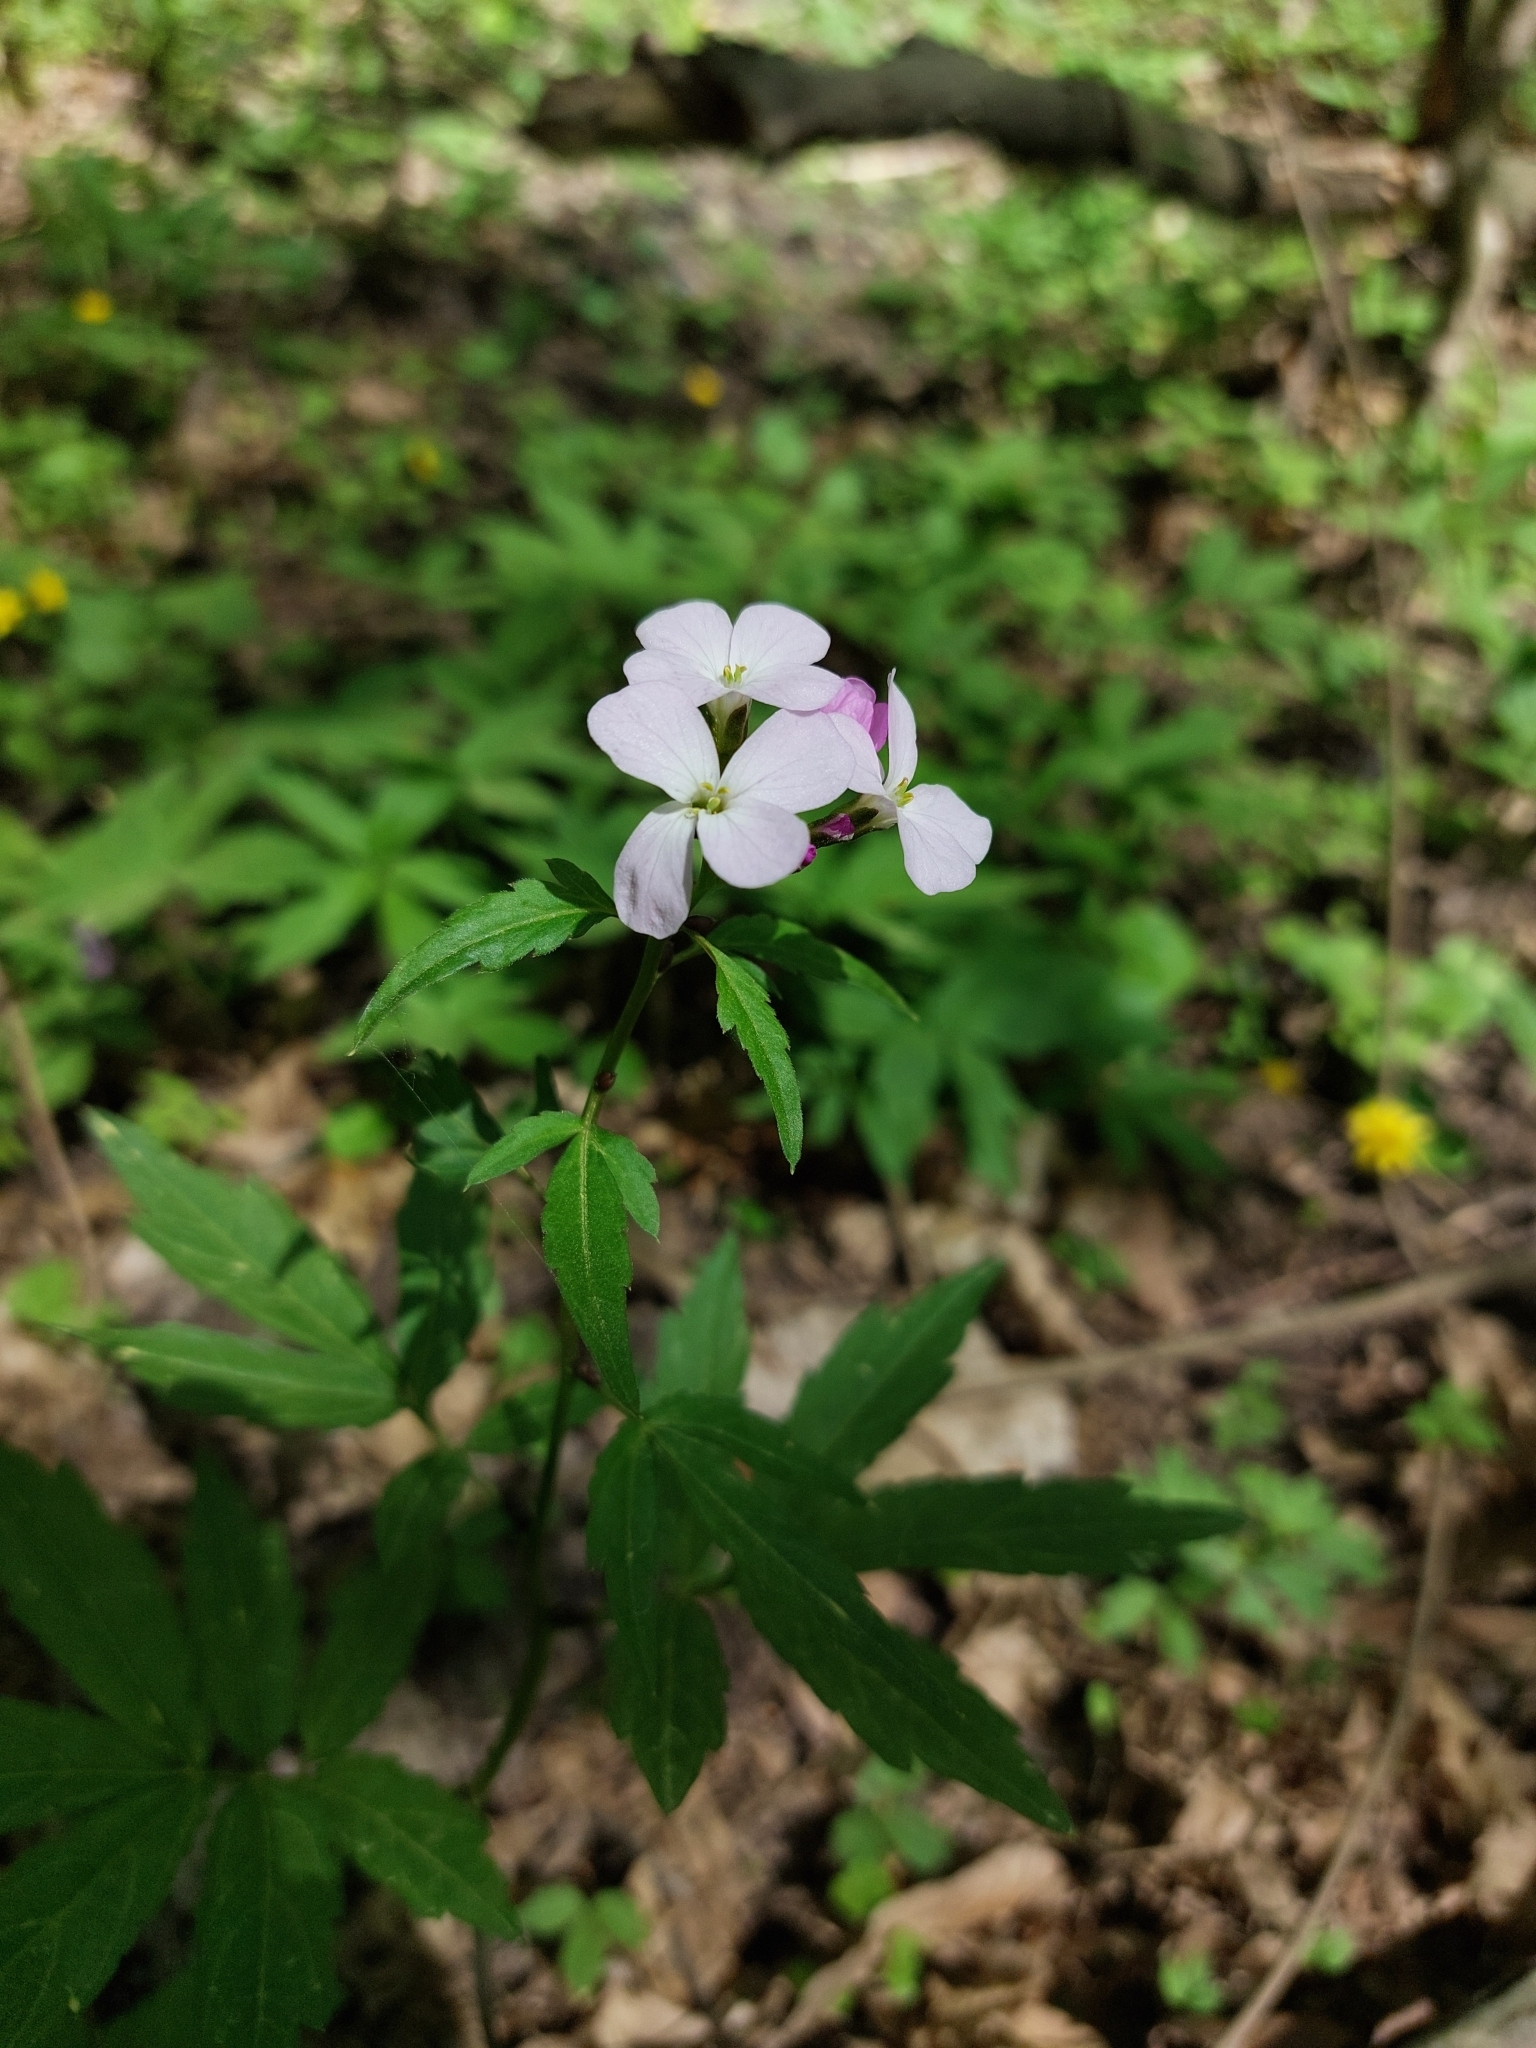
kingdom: Plantae
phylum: Tracheophyta
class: Magnoliopsida
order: Brassicales
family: Brassicaceae
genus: Cardamine
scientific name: Cardamine bulbifera
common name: Coralroot bittercress
